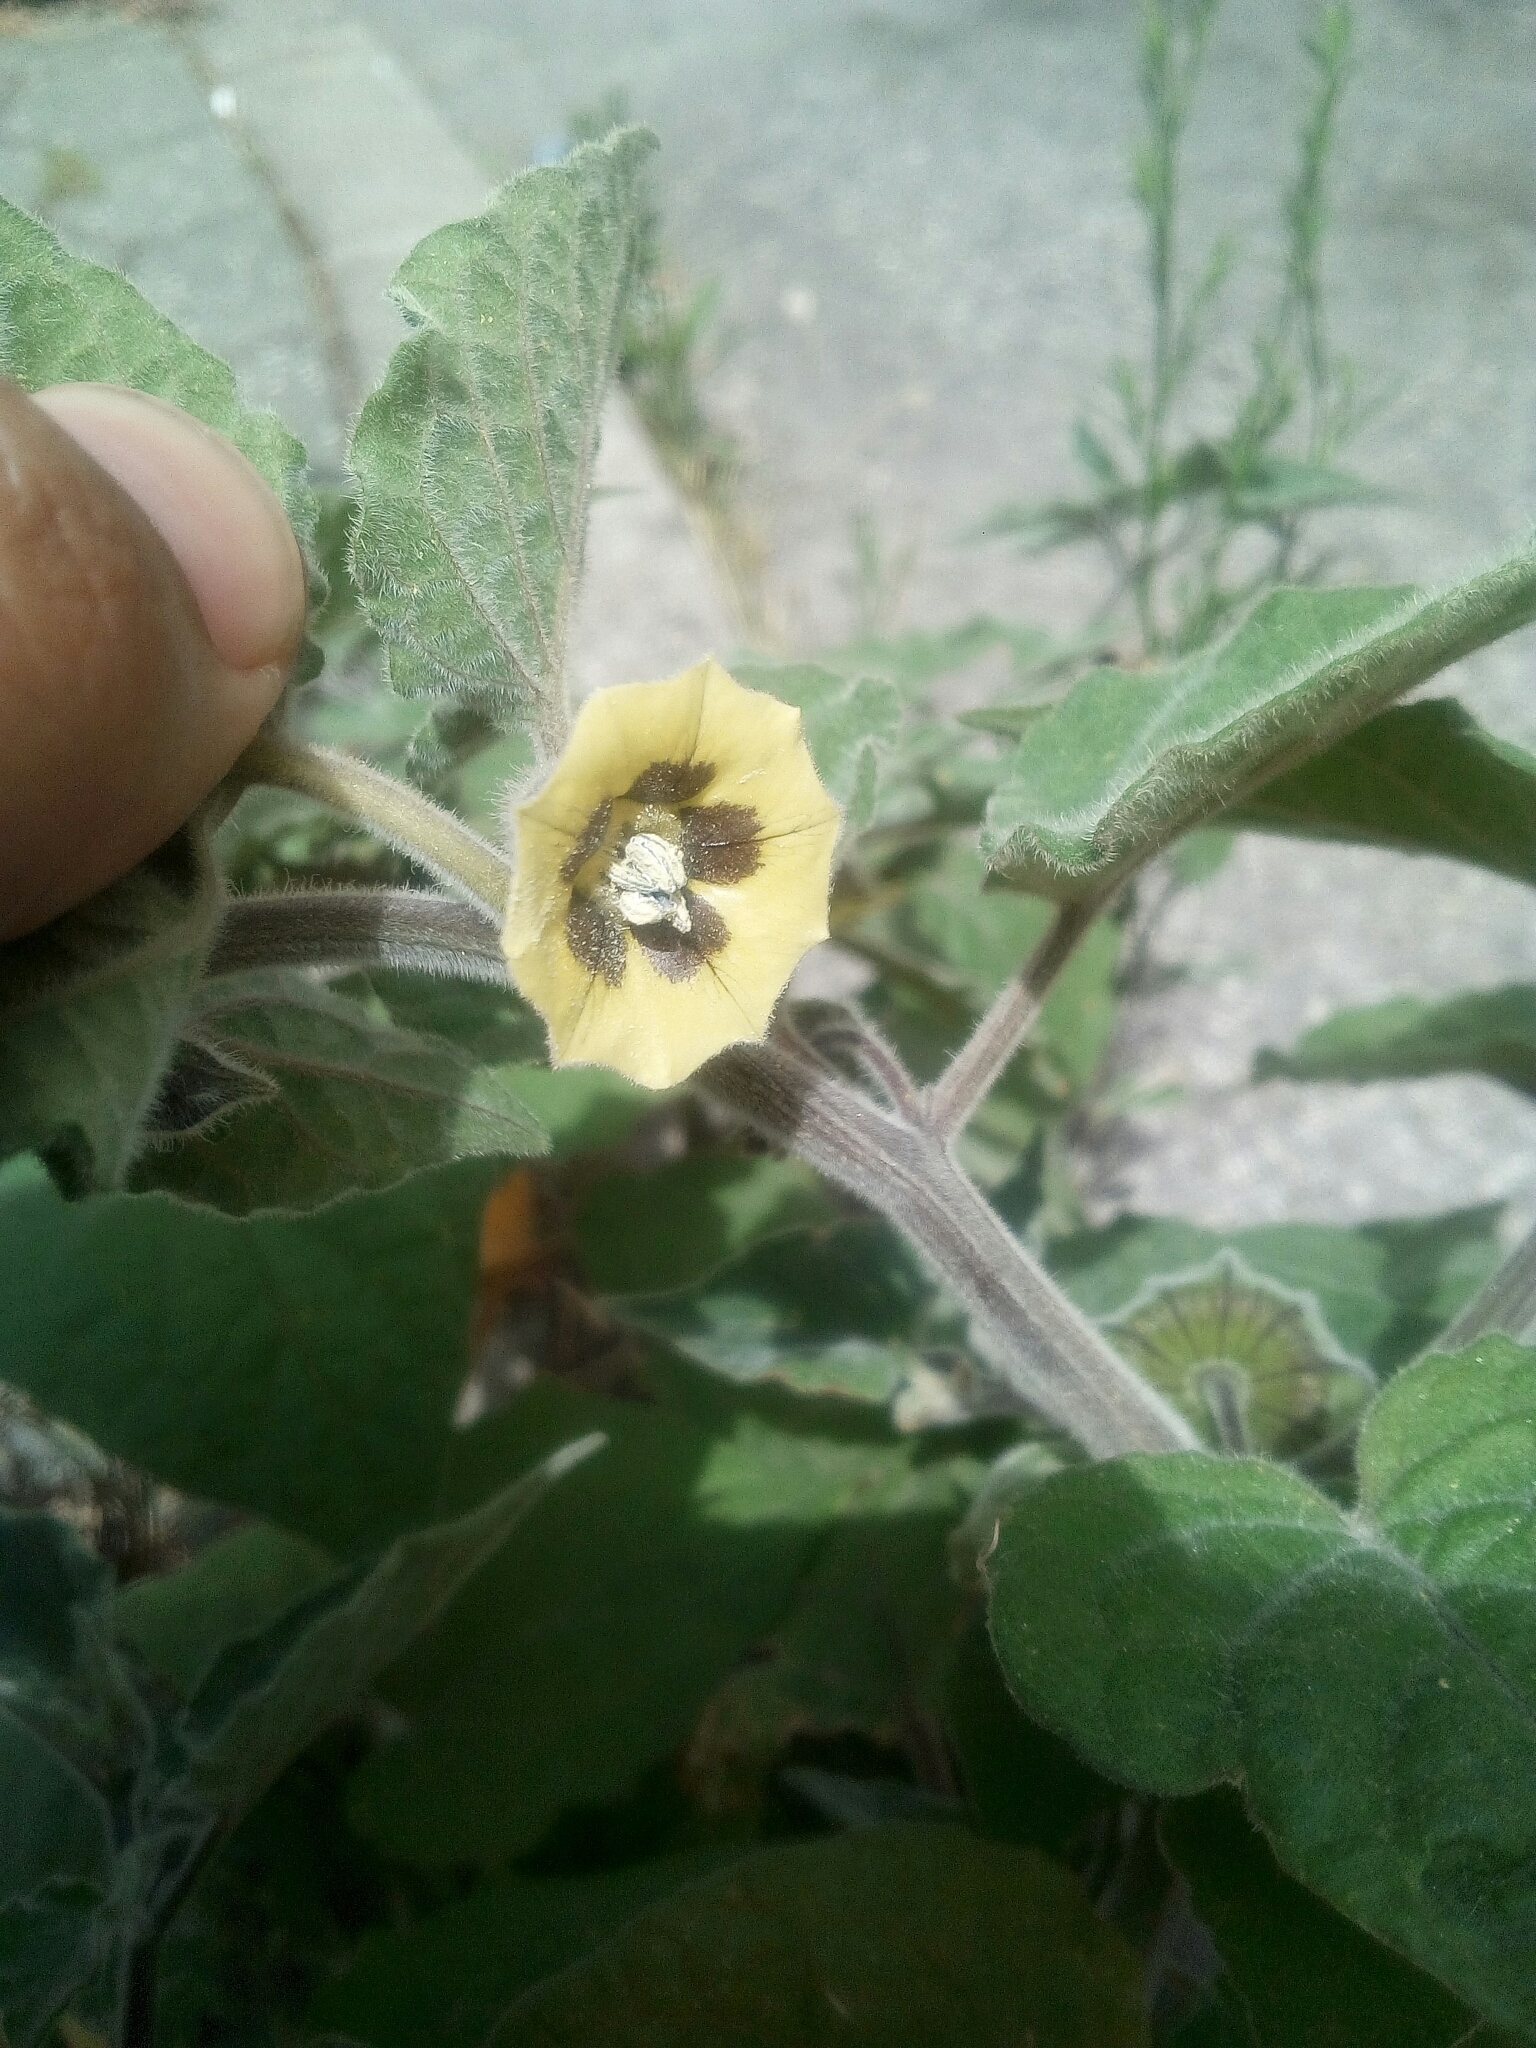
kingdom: Plantae
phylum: Tracheophyta
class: Magnoliopsida
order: Solanales
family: Solanaceae
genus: Physalis
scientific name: Physalis peruviana
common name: Cape-gooseberry
